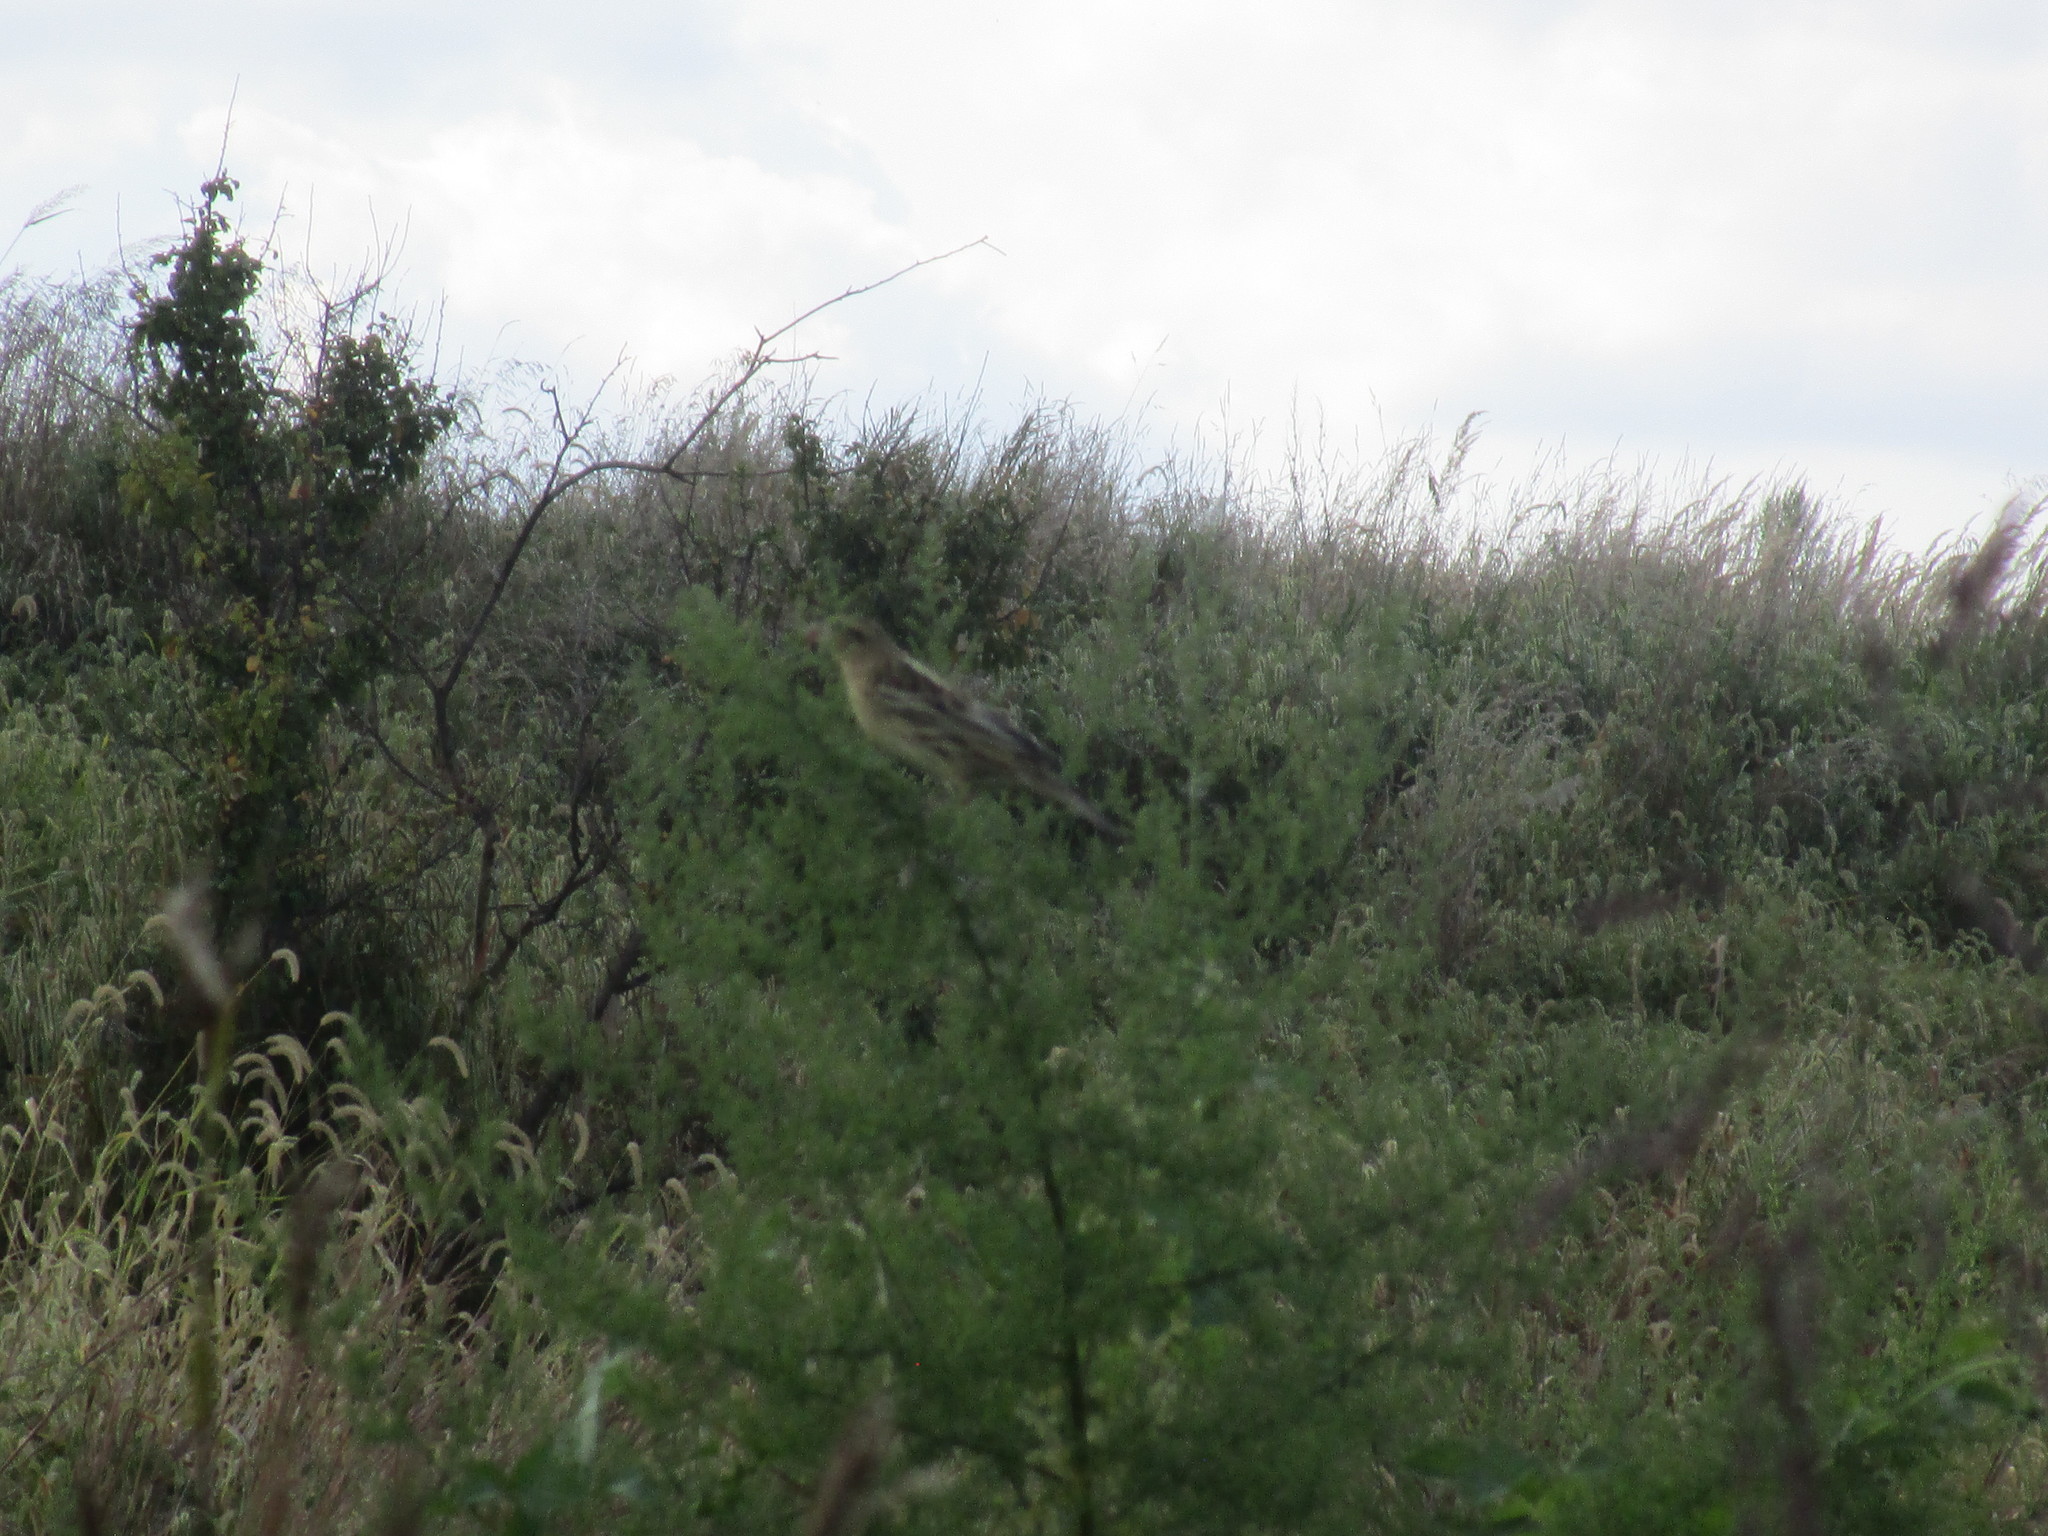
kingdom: Animalia
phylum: Chordata
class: Aves
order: Passeriformes
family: Icteridae
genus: Dolichonyx
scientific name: Dolichonyx oryzivorus
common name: Bobolink
